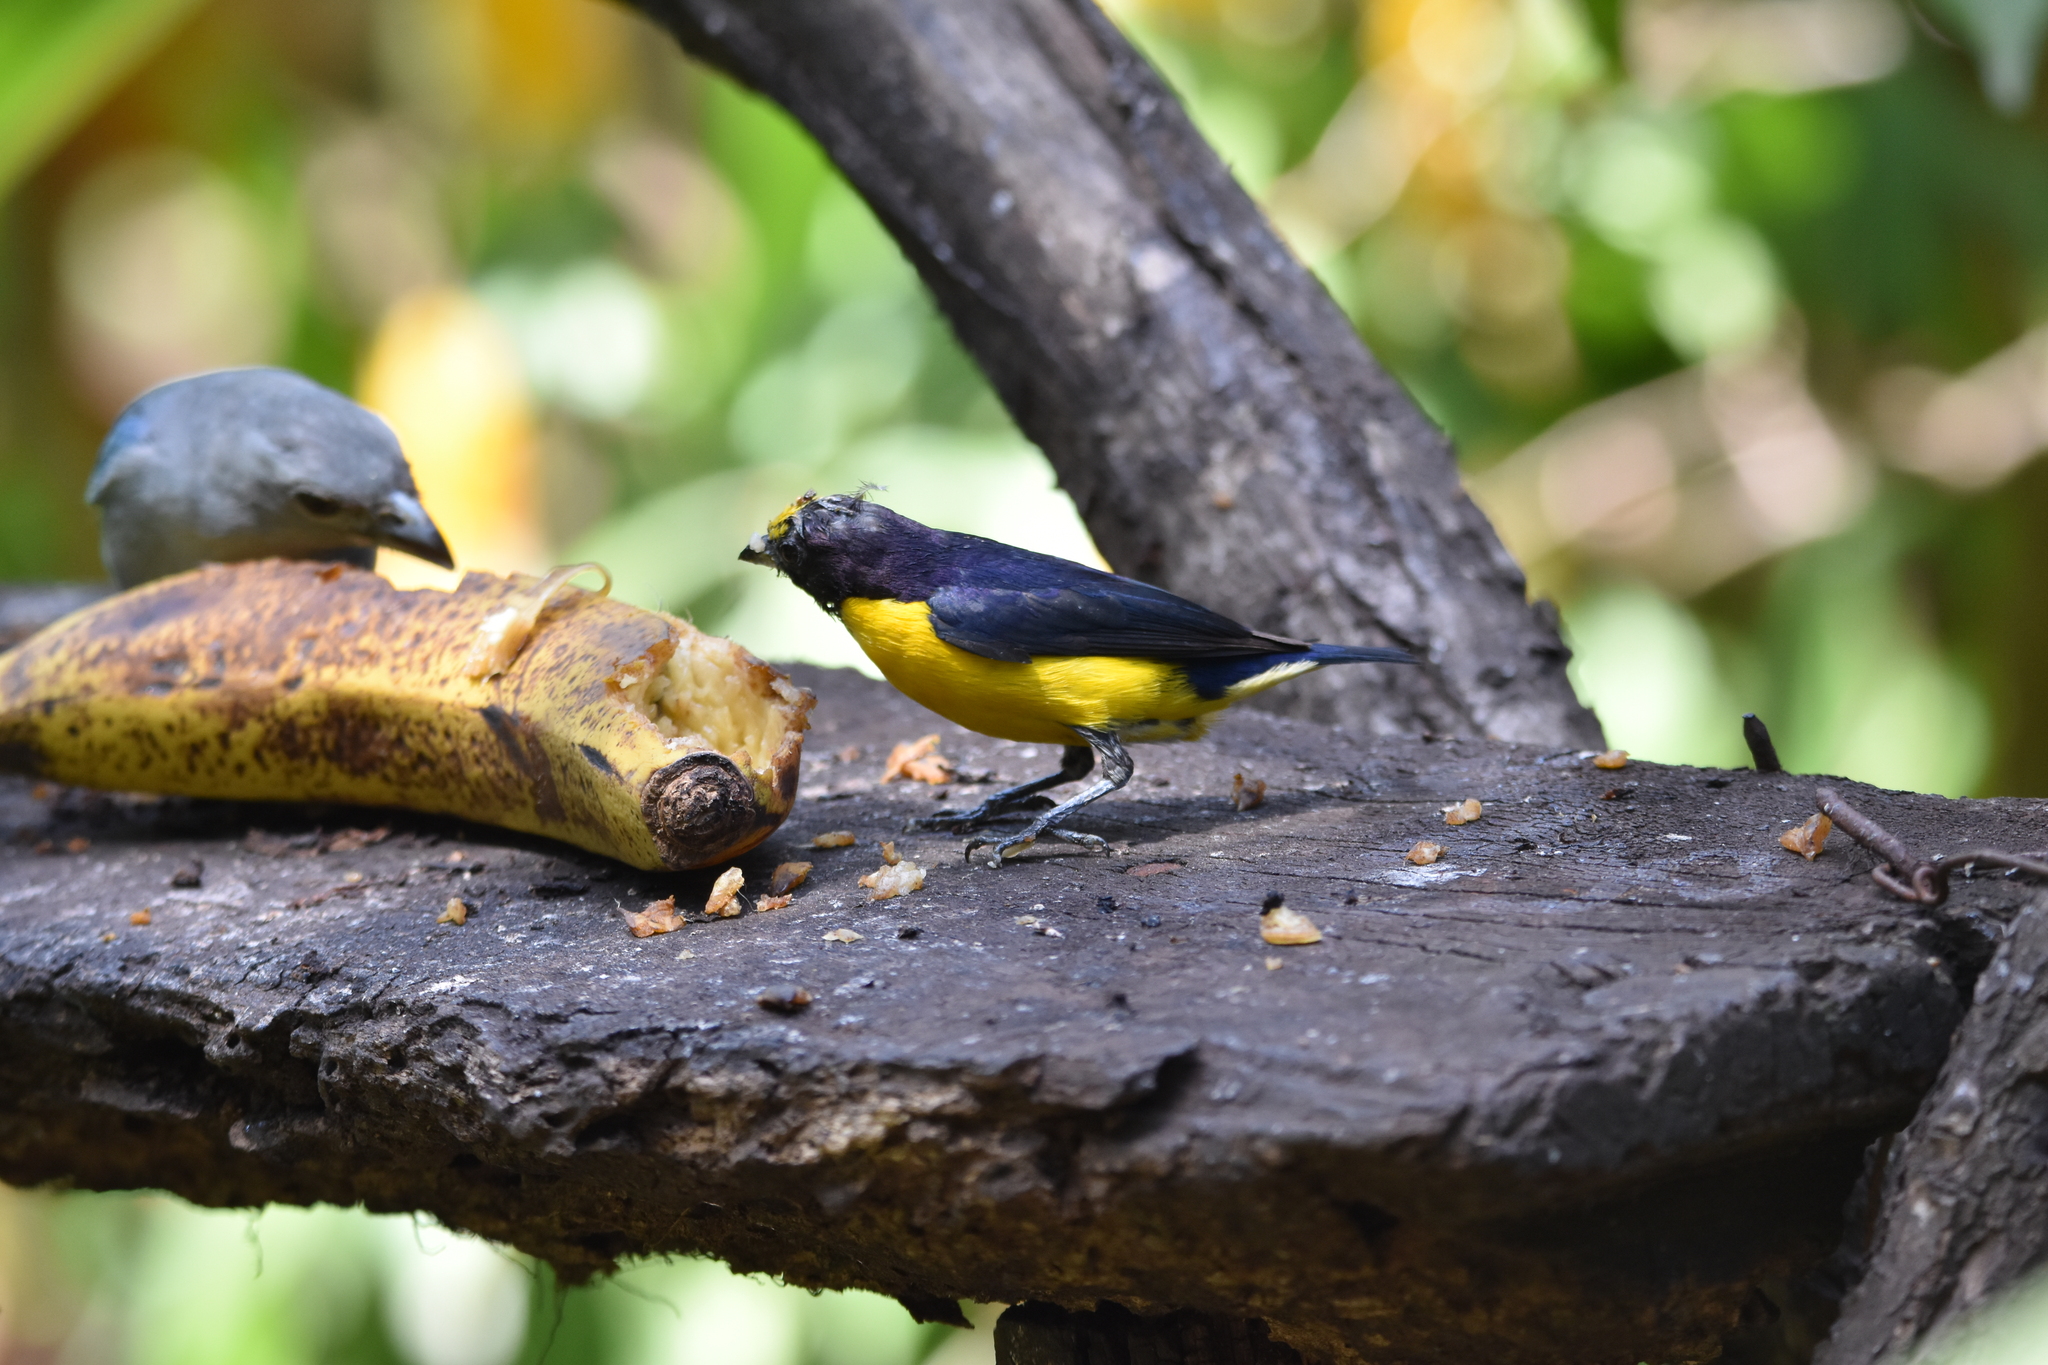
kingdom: Animalia
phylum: Chordata
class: Aves
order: Passeriformes
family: Fringillidae
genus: Euphonia
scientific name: Euphonia chlorotica
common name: Purple-throated euphonia
